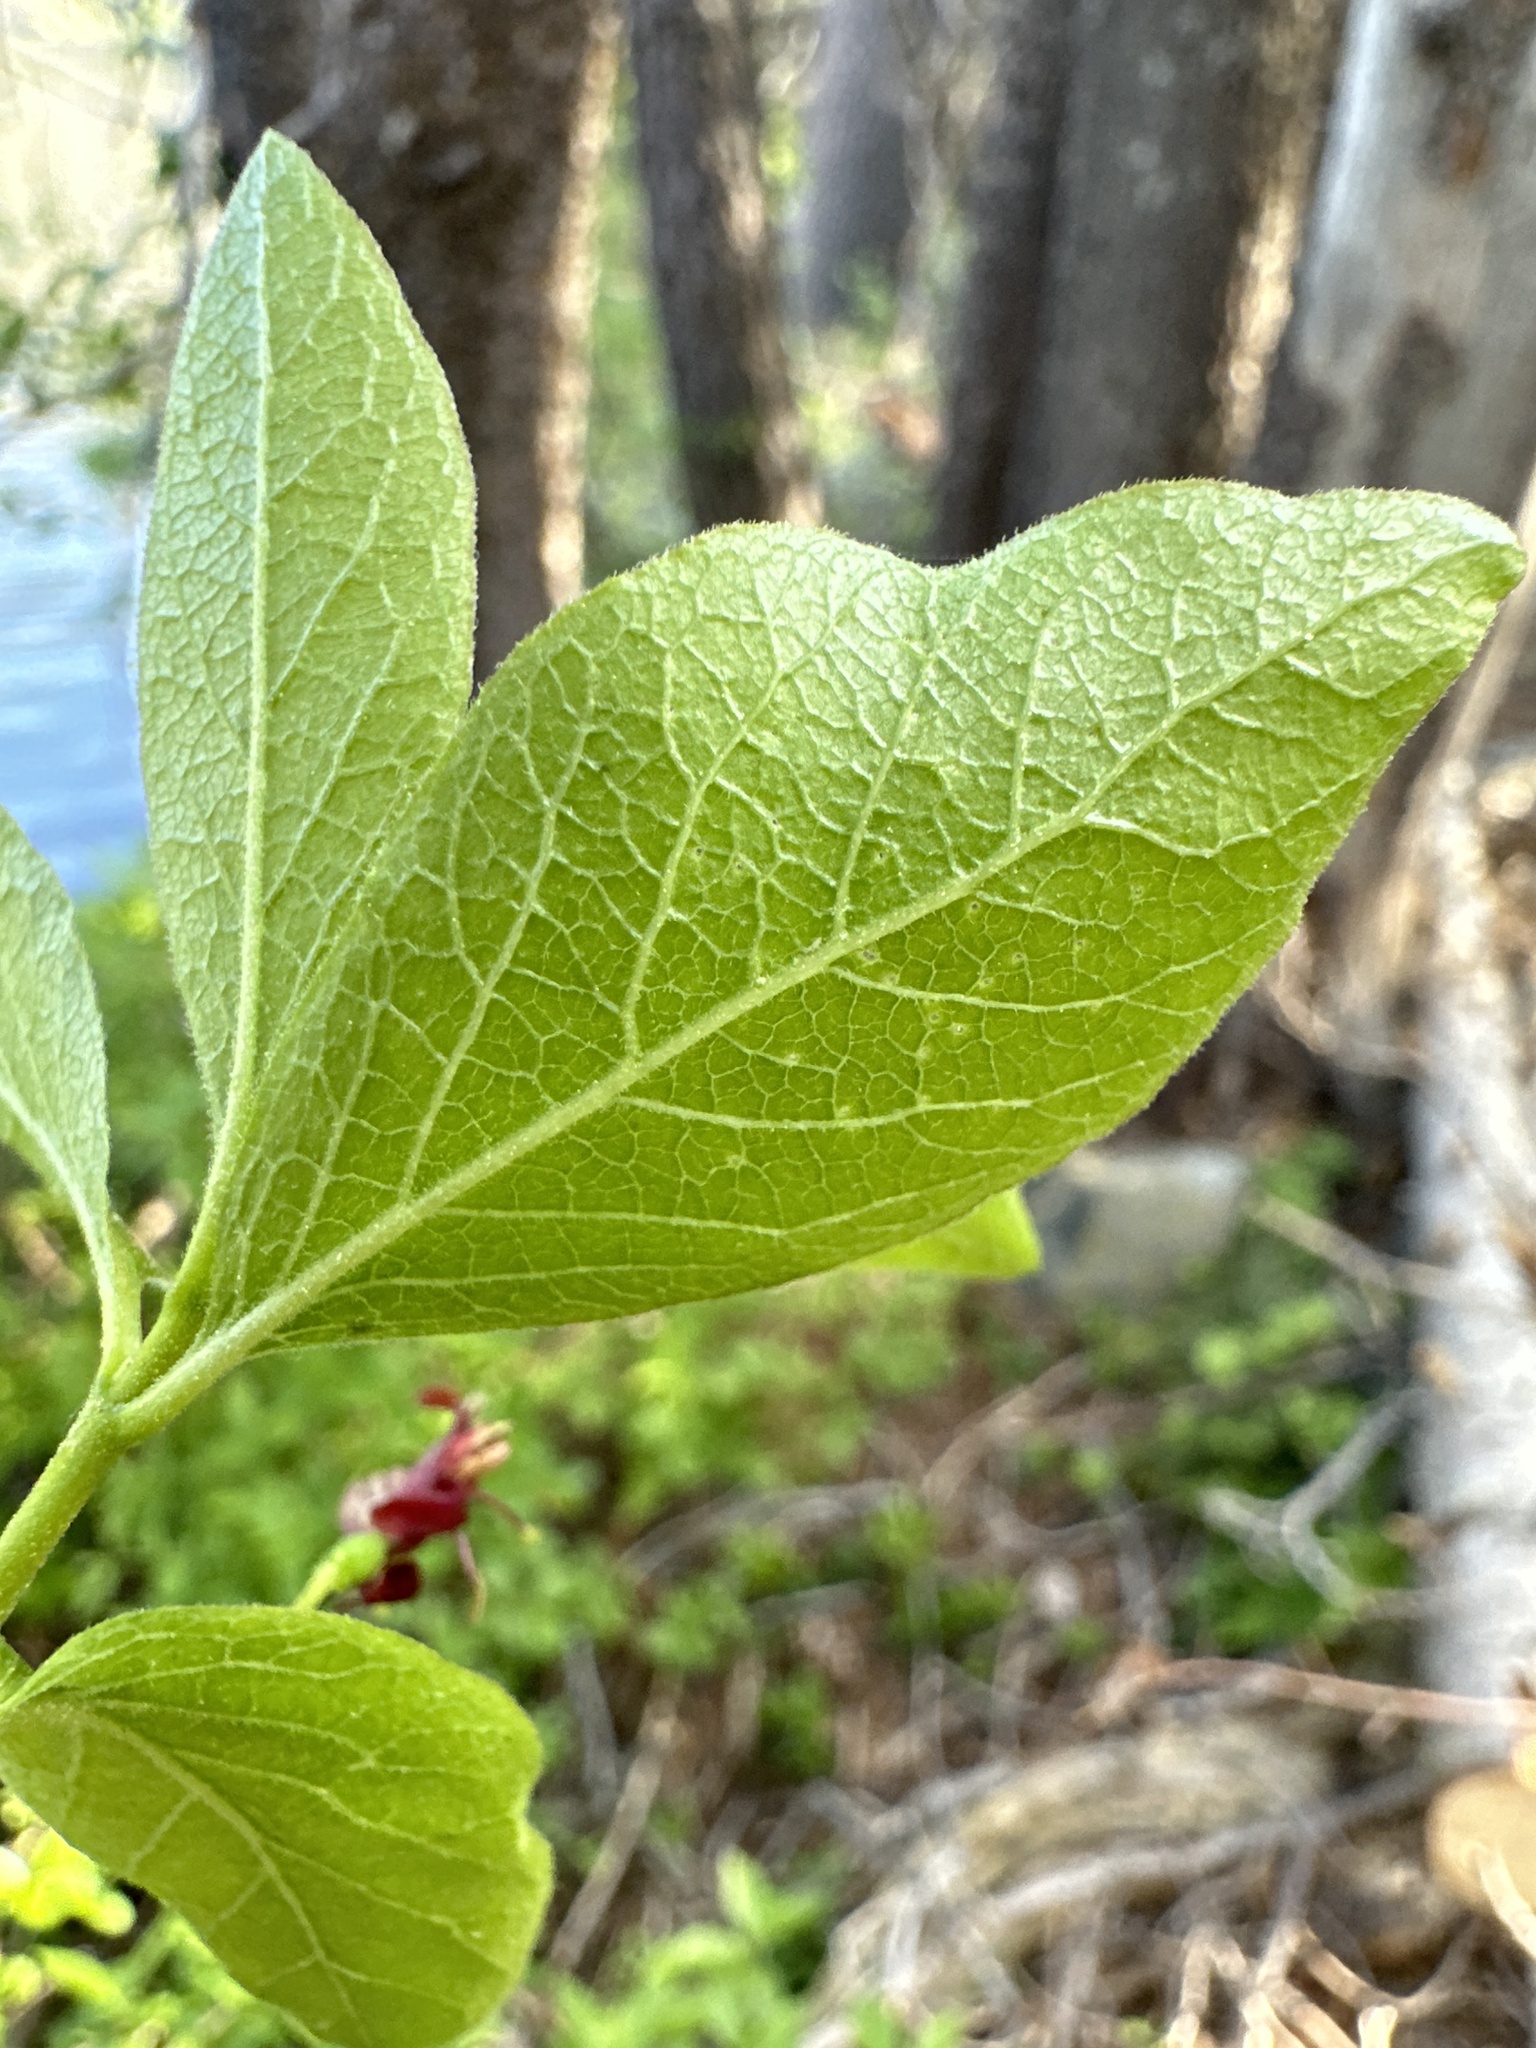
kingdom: Plantae
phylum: Tracheophyta
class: Magnoliopsida
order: Dipsacales
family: Caprifoliaceae
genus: Lonicera
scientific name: Lonicera conjugialis
